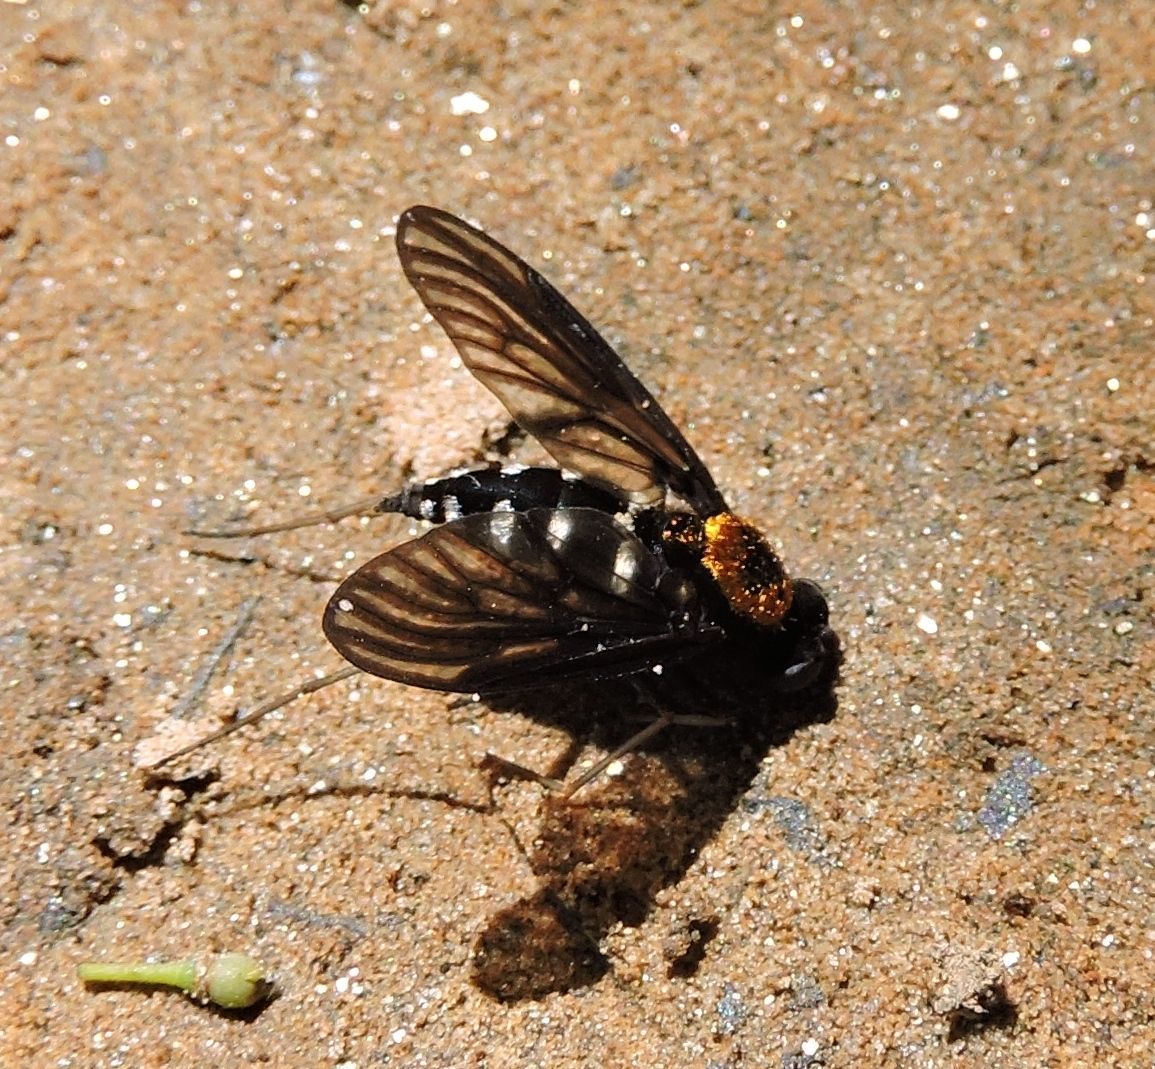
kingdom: Animalia
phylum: Arthropoda
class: Insecta
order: Diptera
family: Rhagionidae
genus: Chrysopilus
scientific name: Chrysopilus thoracicus
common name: Golden-backed snipe fly
